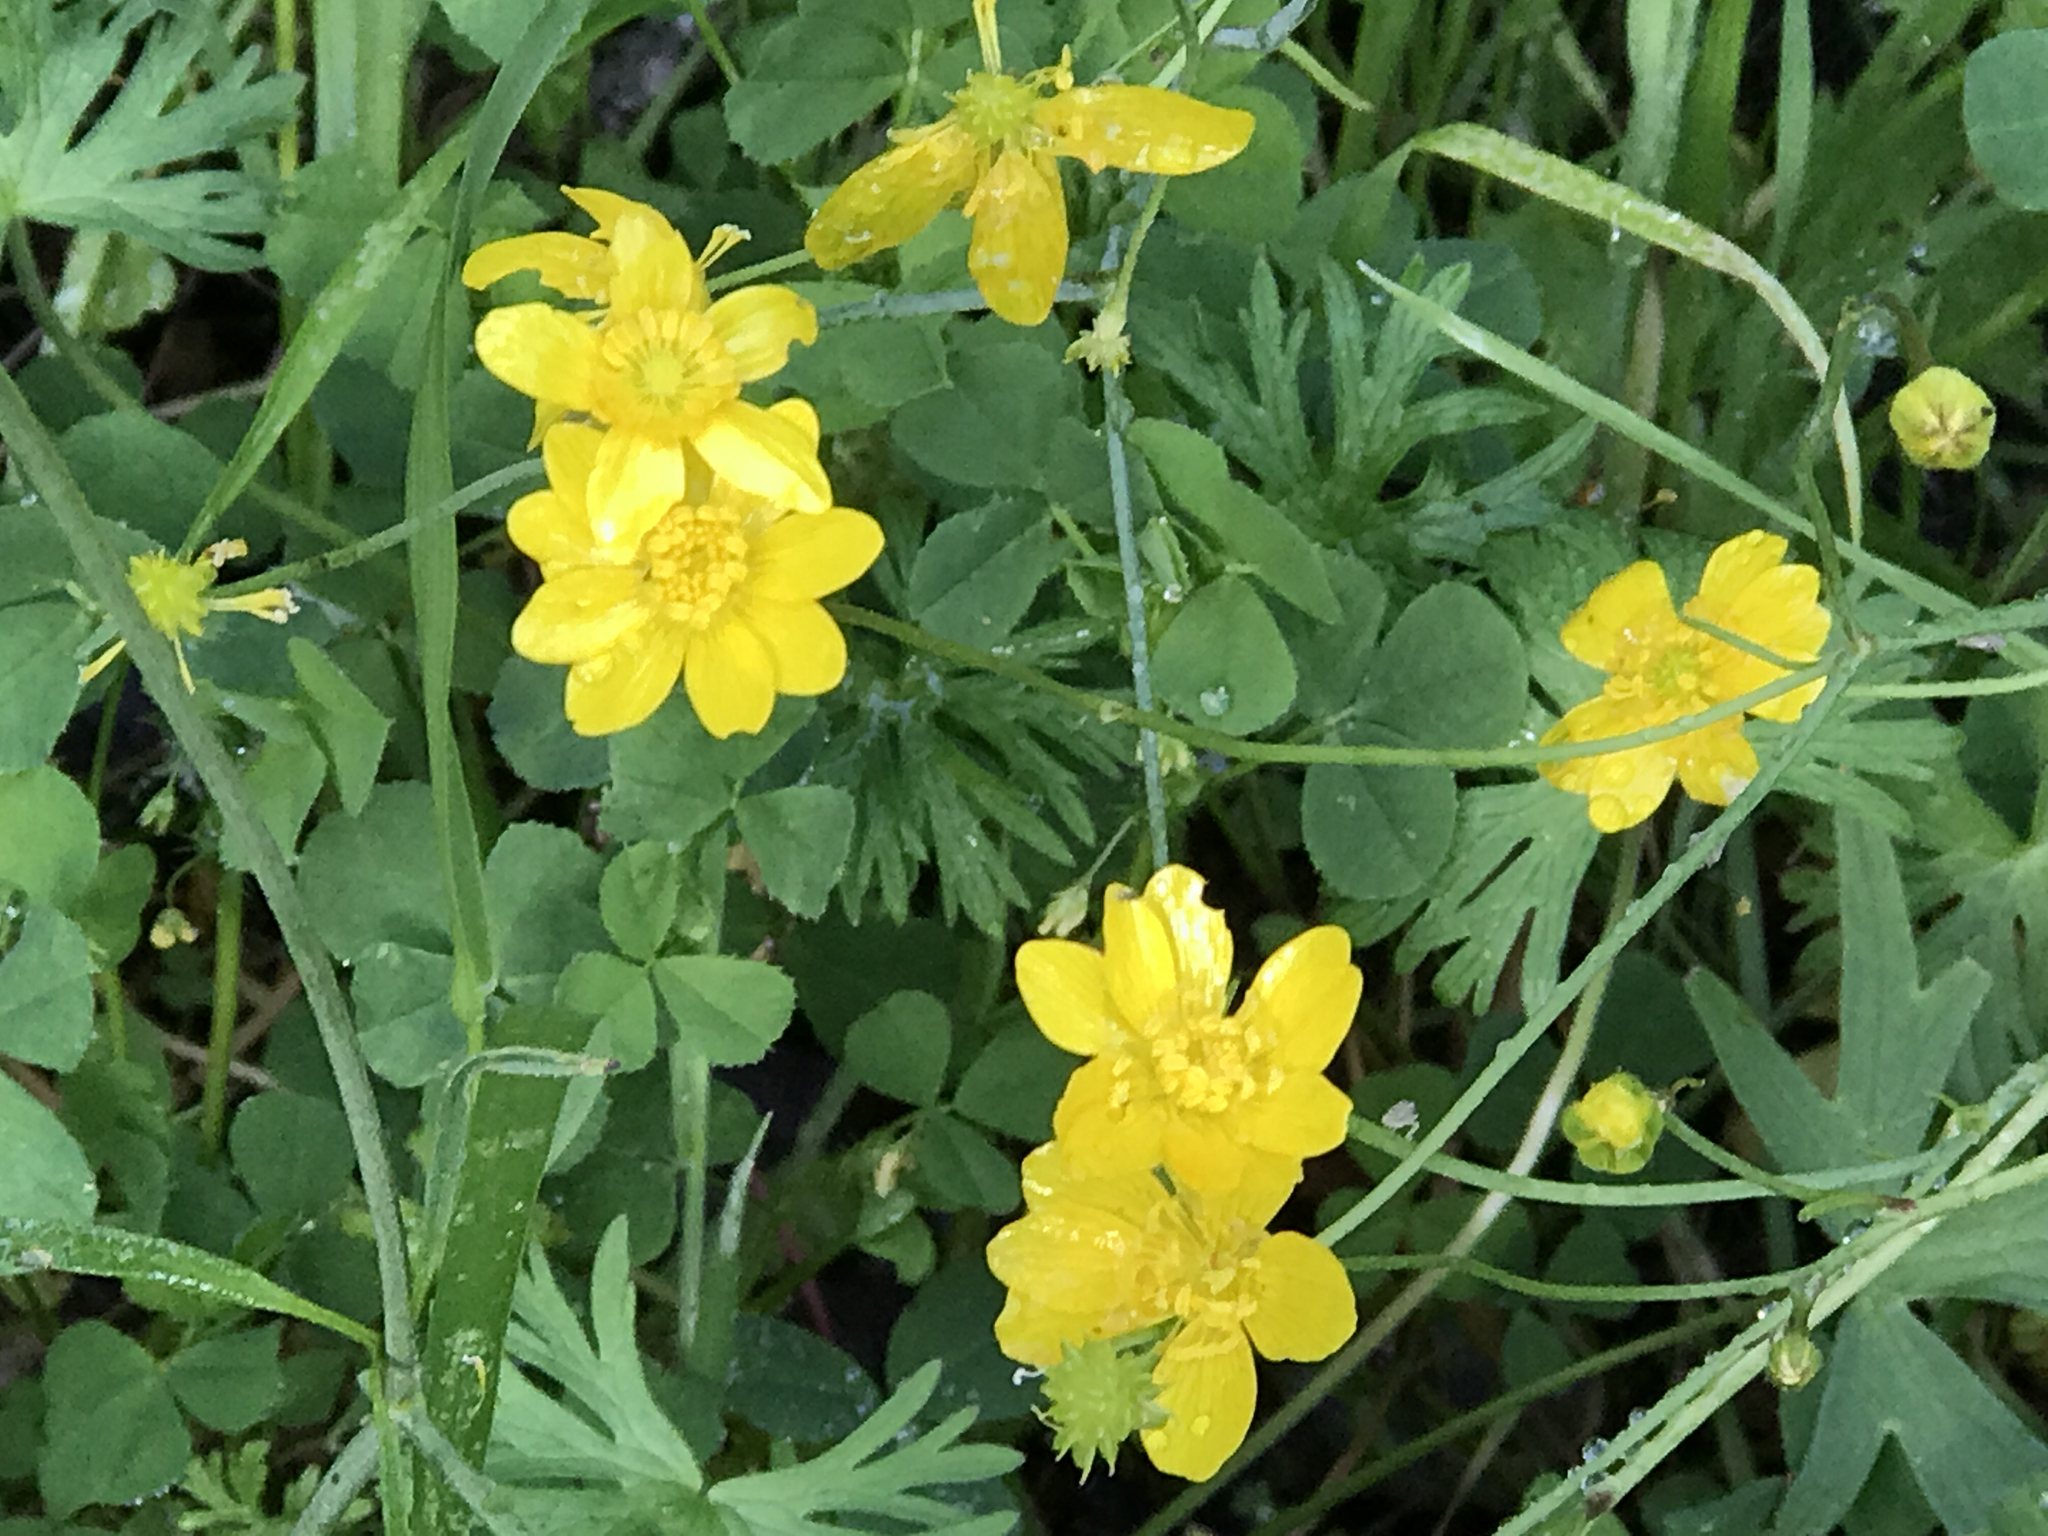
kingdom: Plantae
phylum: Tracheophyta
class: Magnoliopsida
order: Ranunculales
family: Ranunculaceae
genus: Ranunculus
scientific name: Ranunculus californicus
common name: California buttercup
